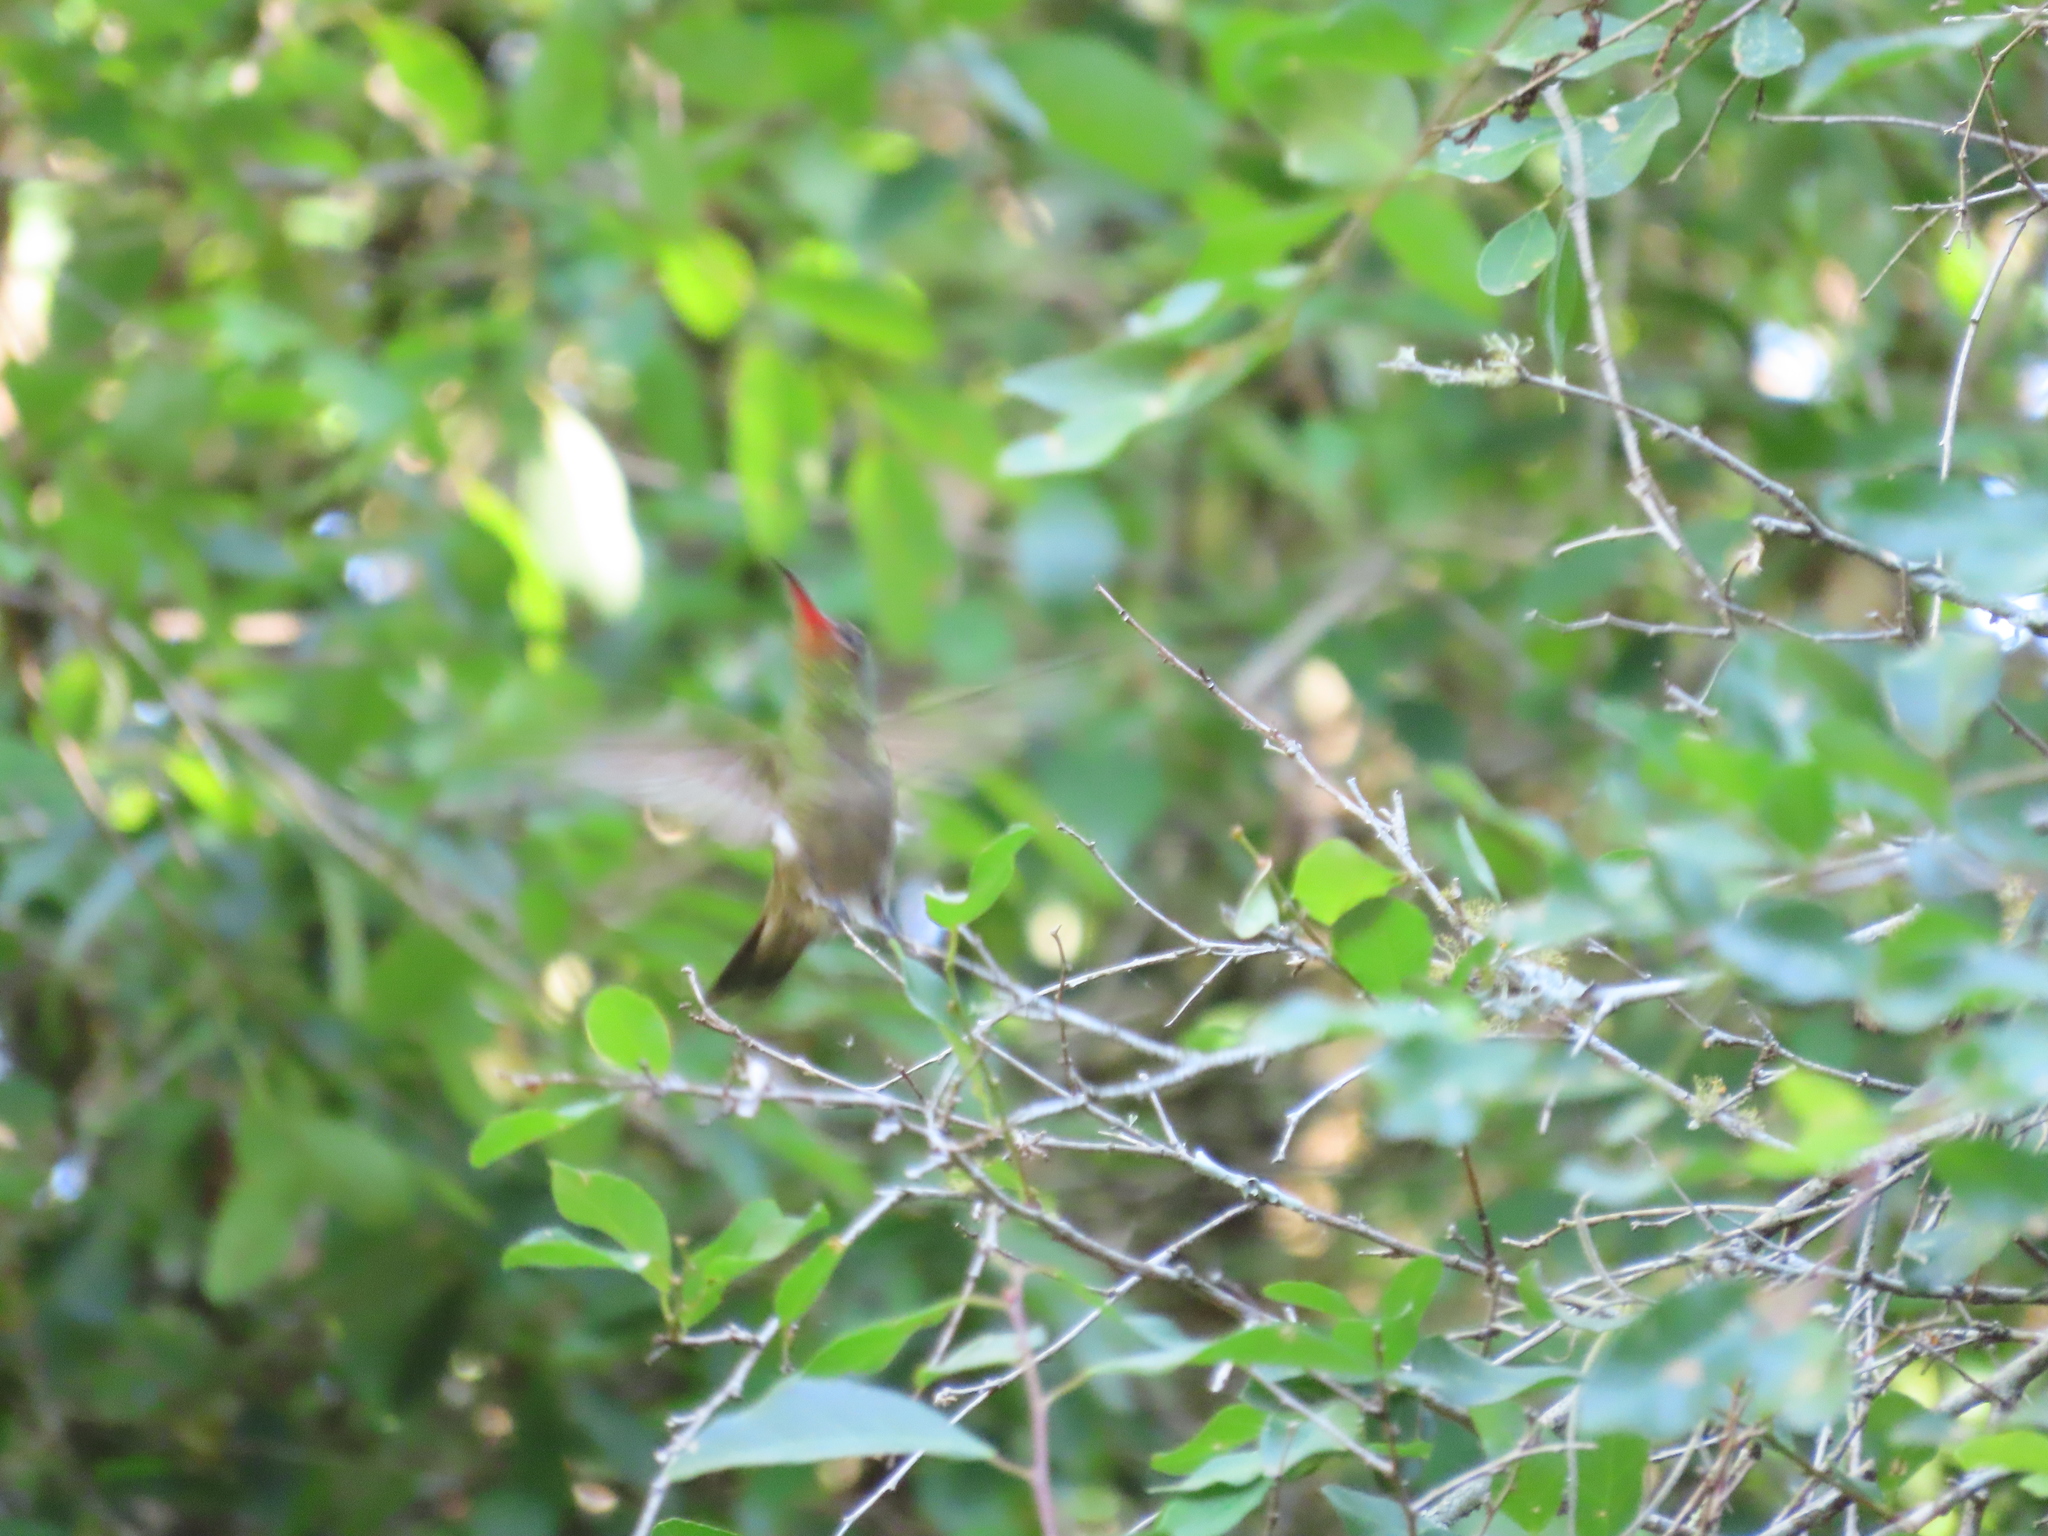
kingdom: Animalia
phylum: Chordata
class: Aves
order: Apodiformes
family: Trochilidae
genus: Hylocharis
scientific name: Hylocharis chrysura
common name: Gilded sapphire
